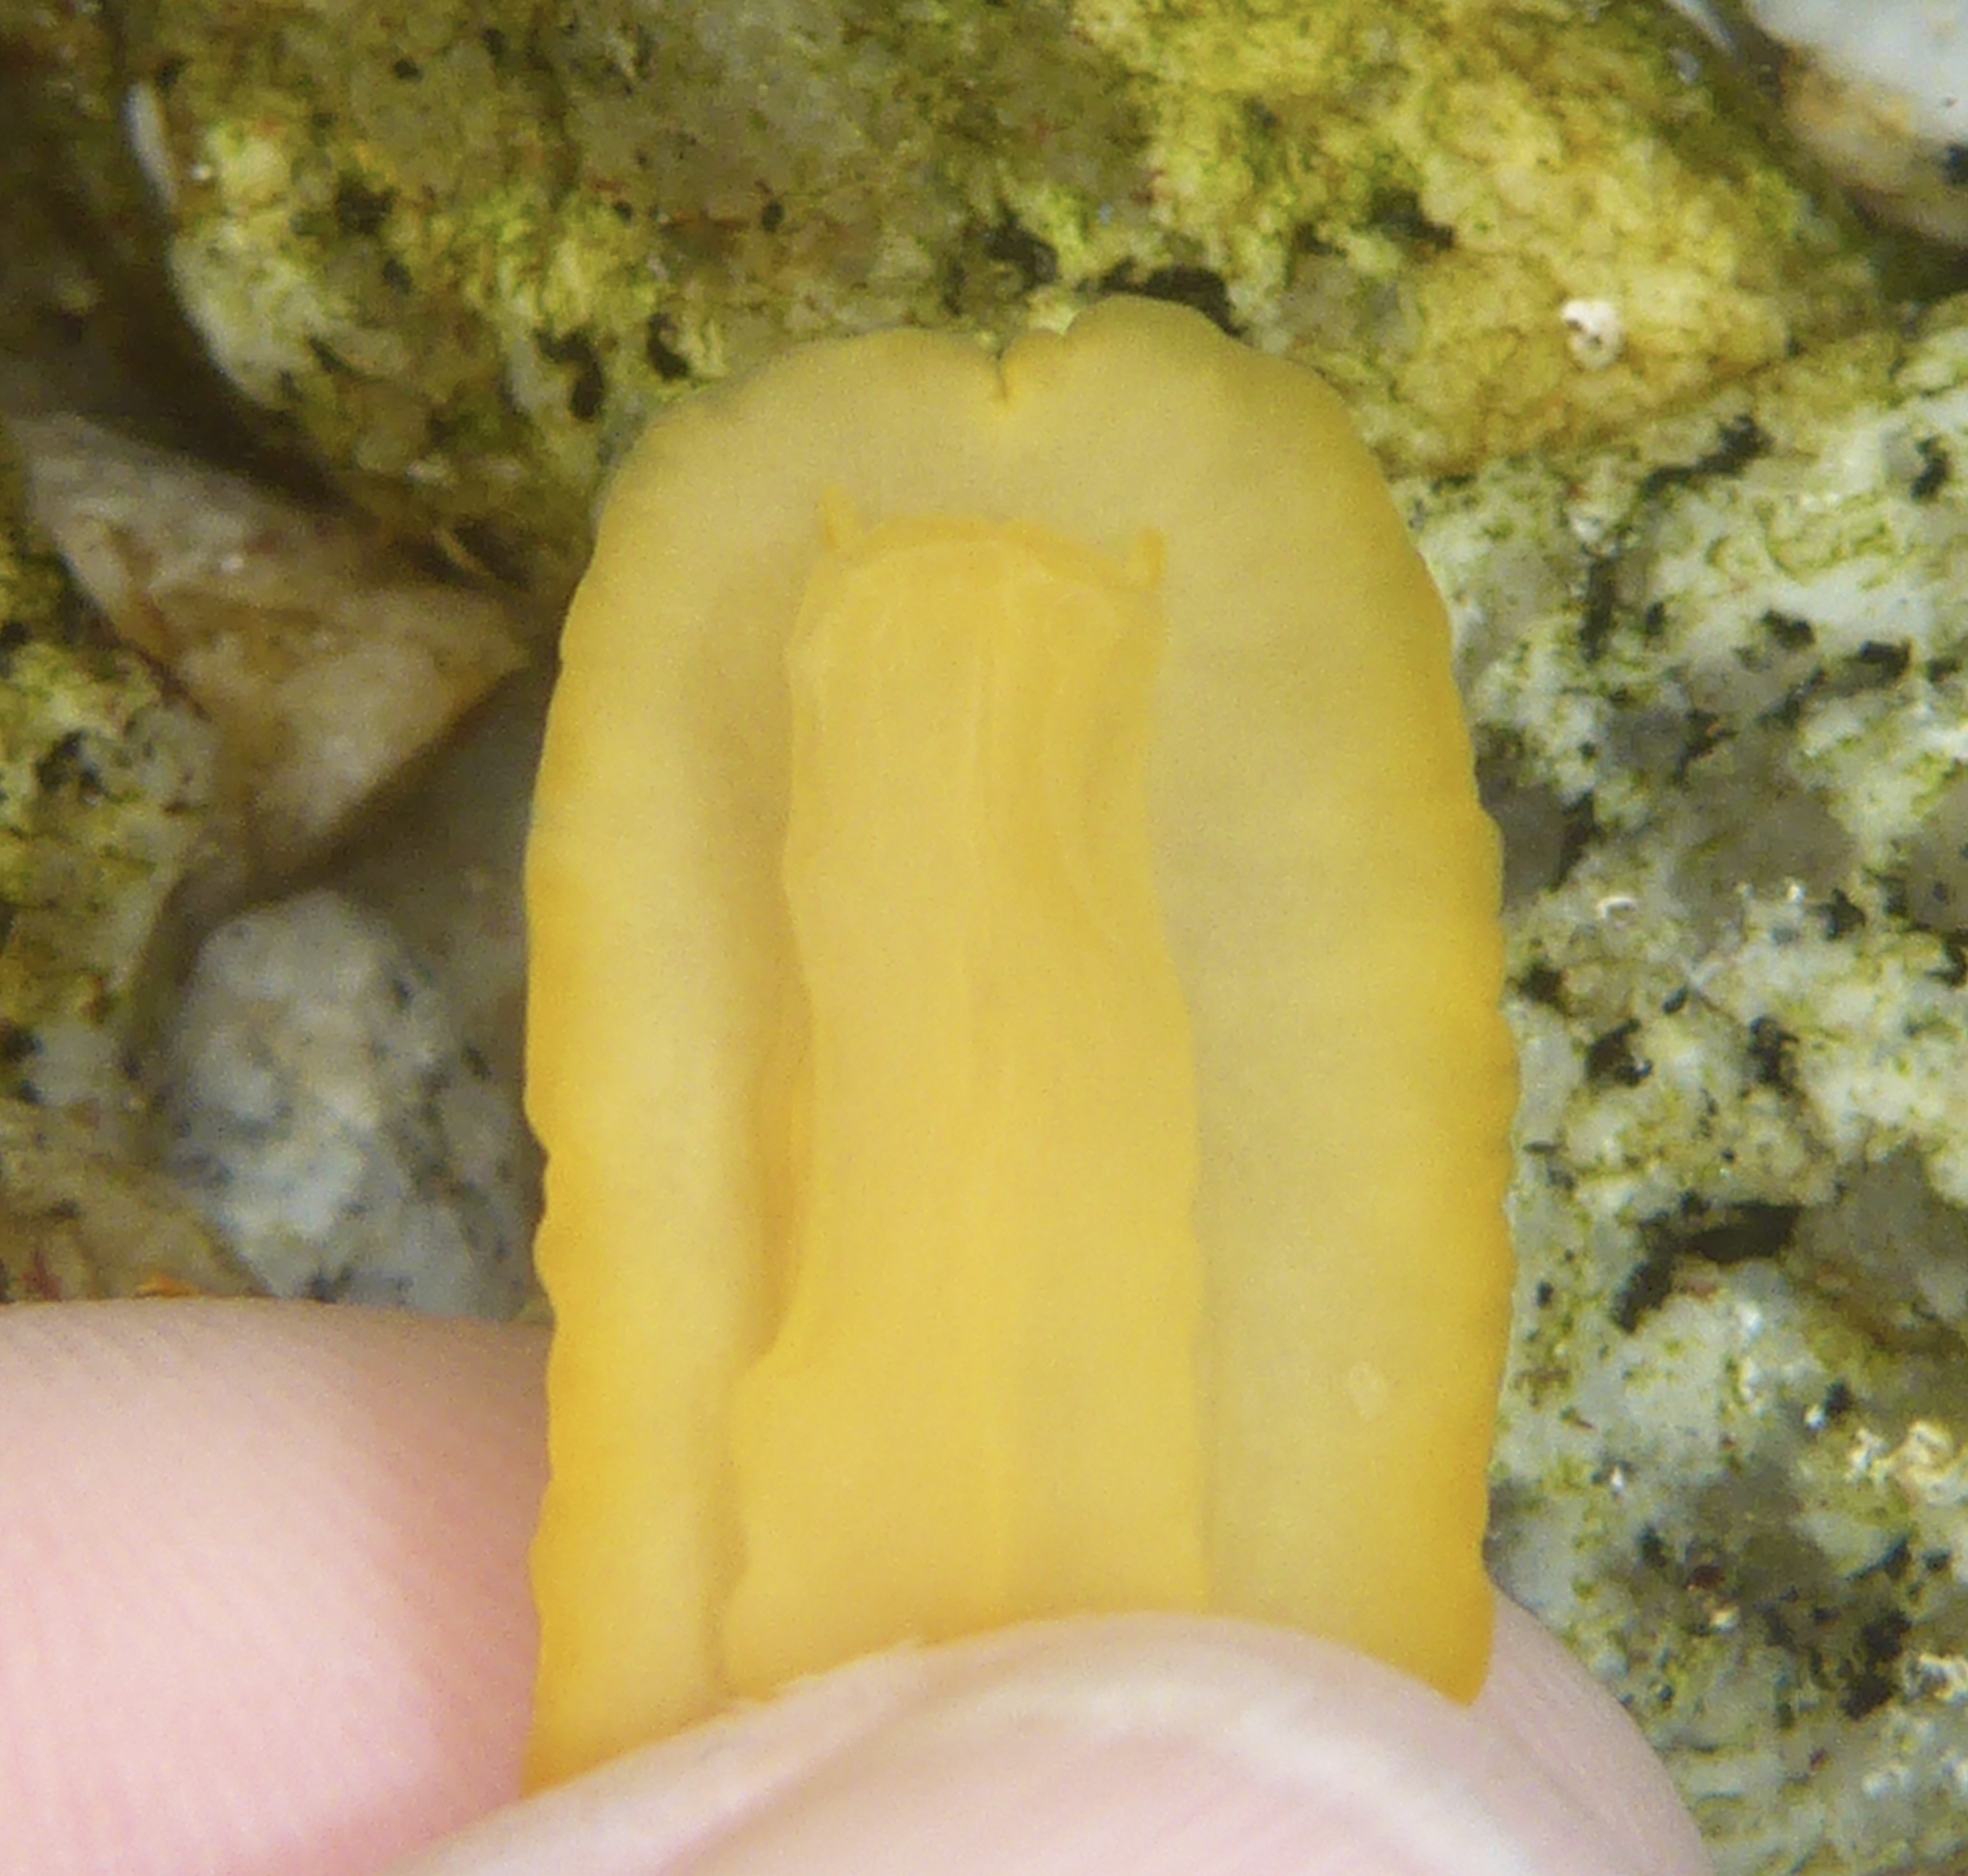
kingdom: Animalia
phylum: Mollusca
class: Gastropoda
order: Nudibranchia
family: Discodorididae
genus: Baptodoris
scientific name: Baptodoris mimetica
